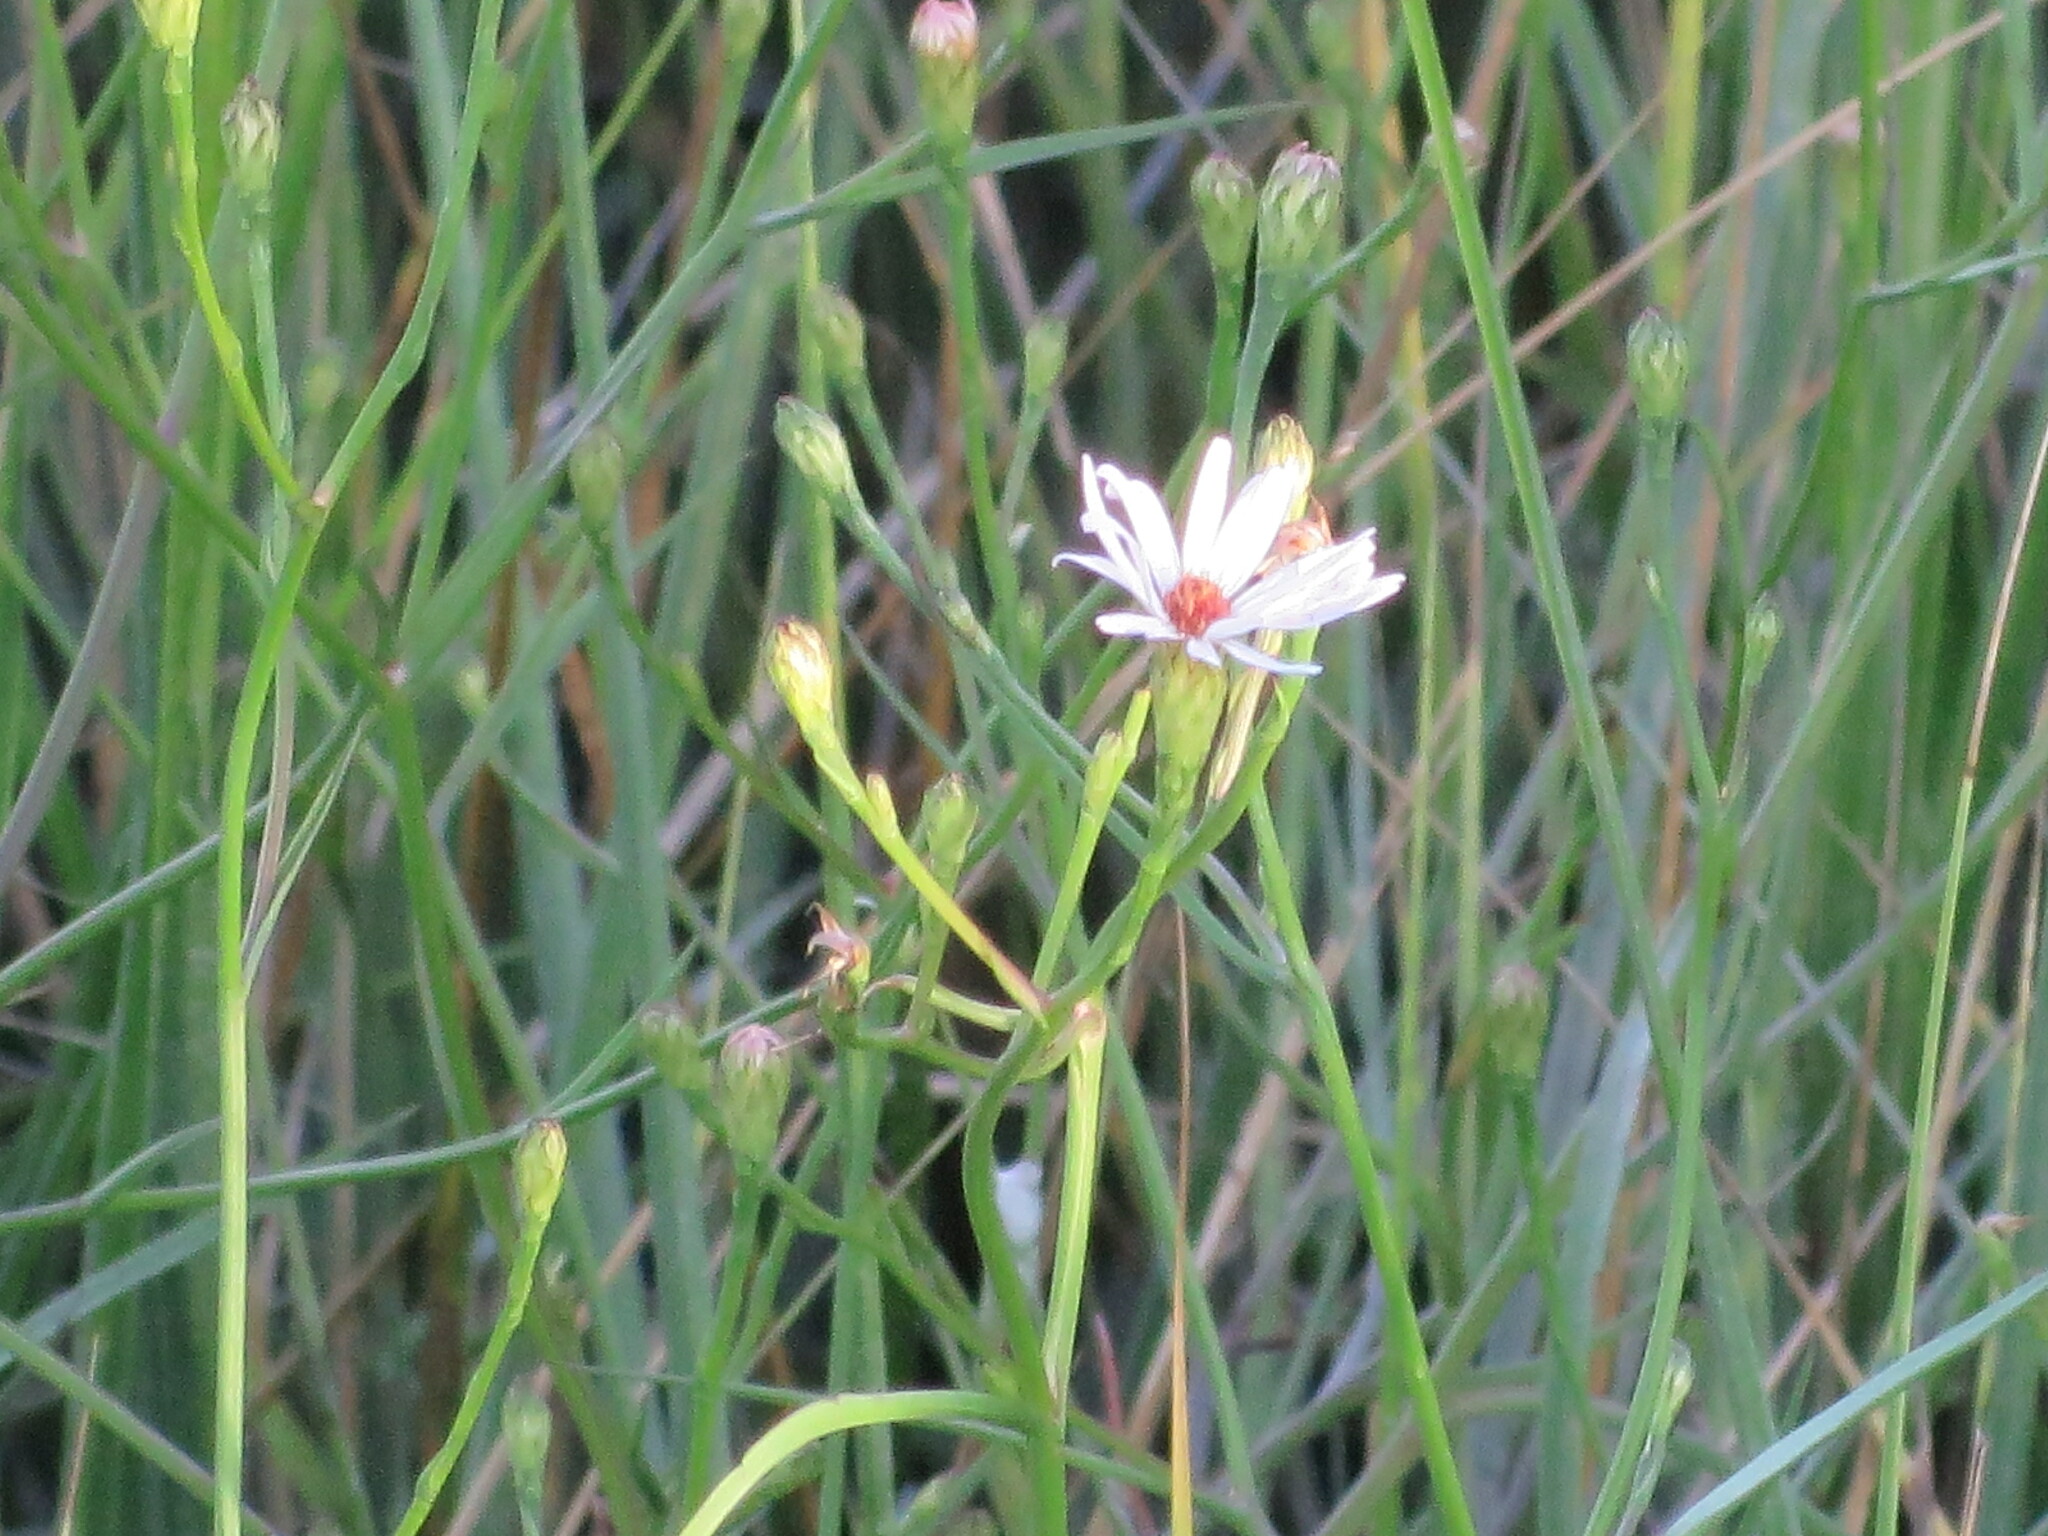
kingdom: Plantae
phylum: Tracheophyta
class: Magnoliopsida
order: Asterales
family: Asteraceae
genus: Symphyotrichum
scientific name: Symphyotrichum tenuifolium
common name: Perennial salt-marsh aster
